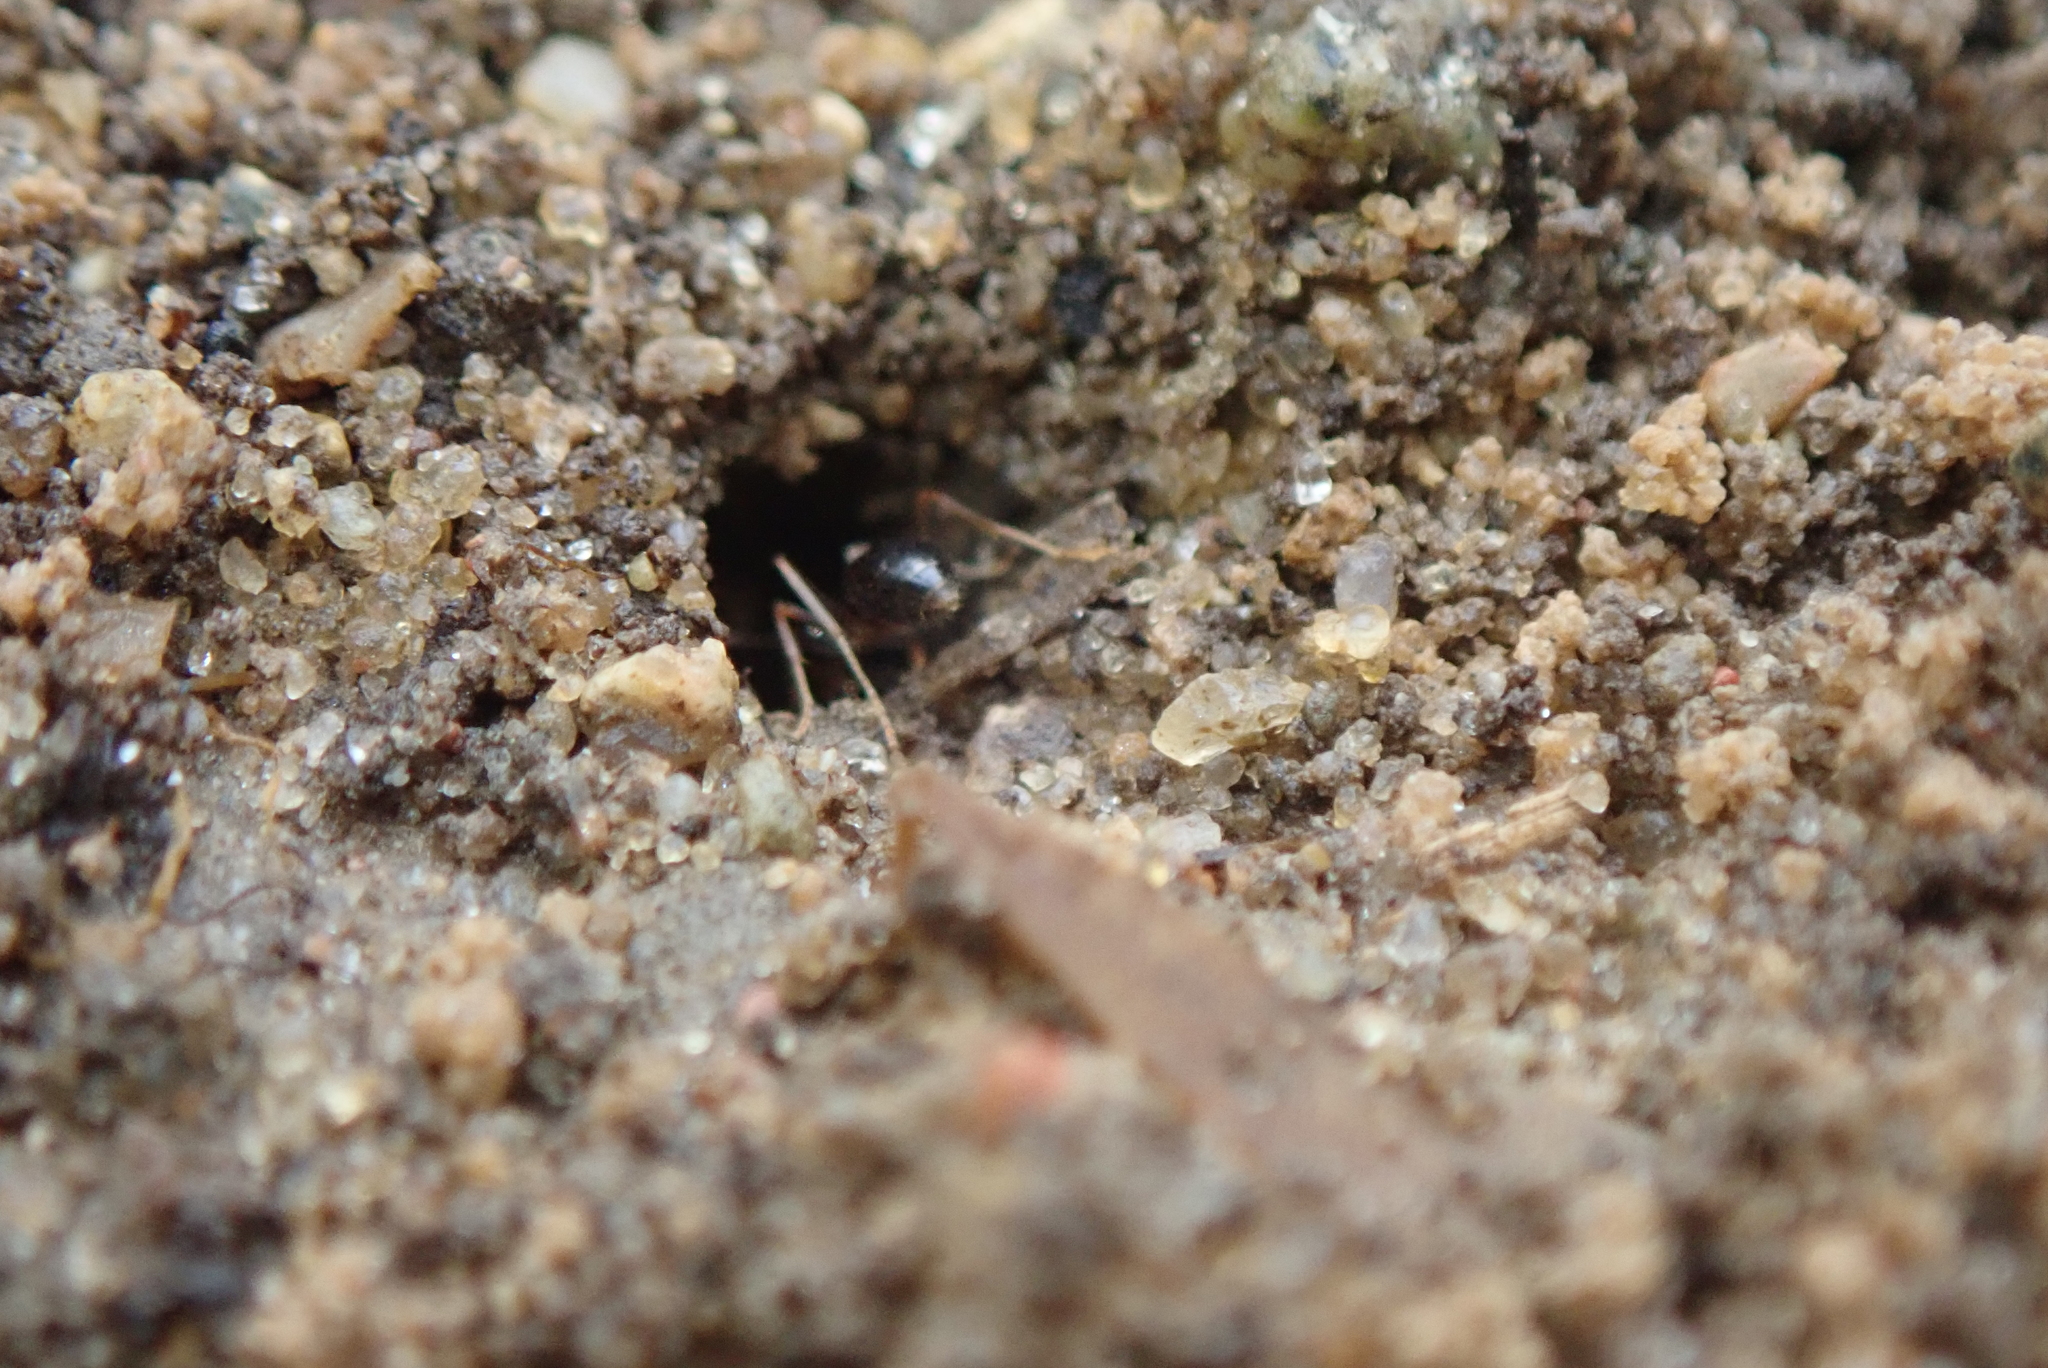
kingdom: Animalia
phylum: Arthropoda
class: Insecta
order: Hymenoptera
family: Formicidae
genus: Prenolepis
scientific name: Prenolepis imparis
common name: Small honey ant
